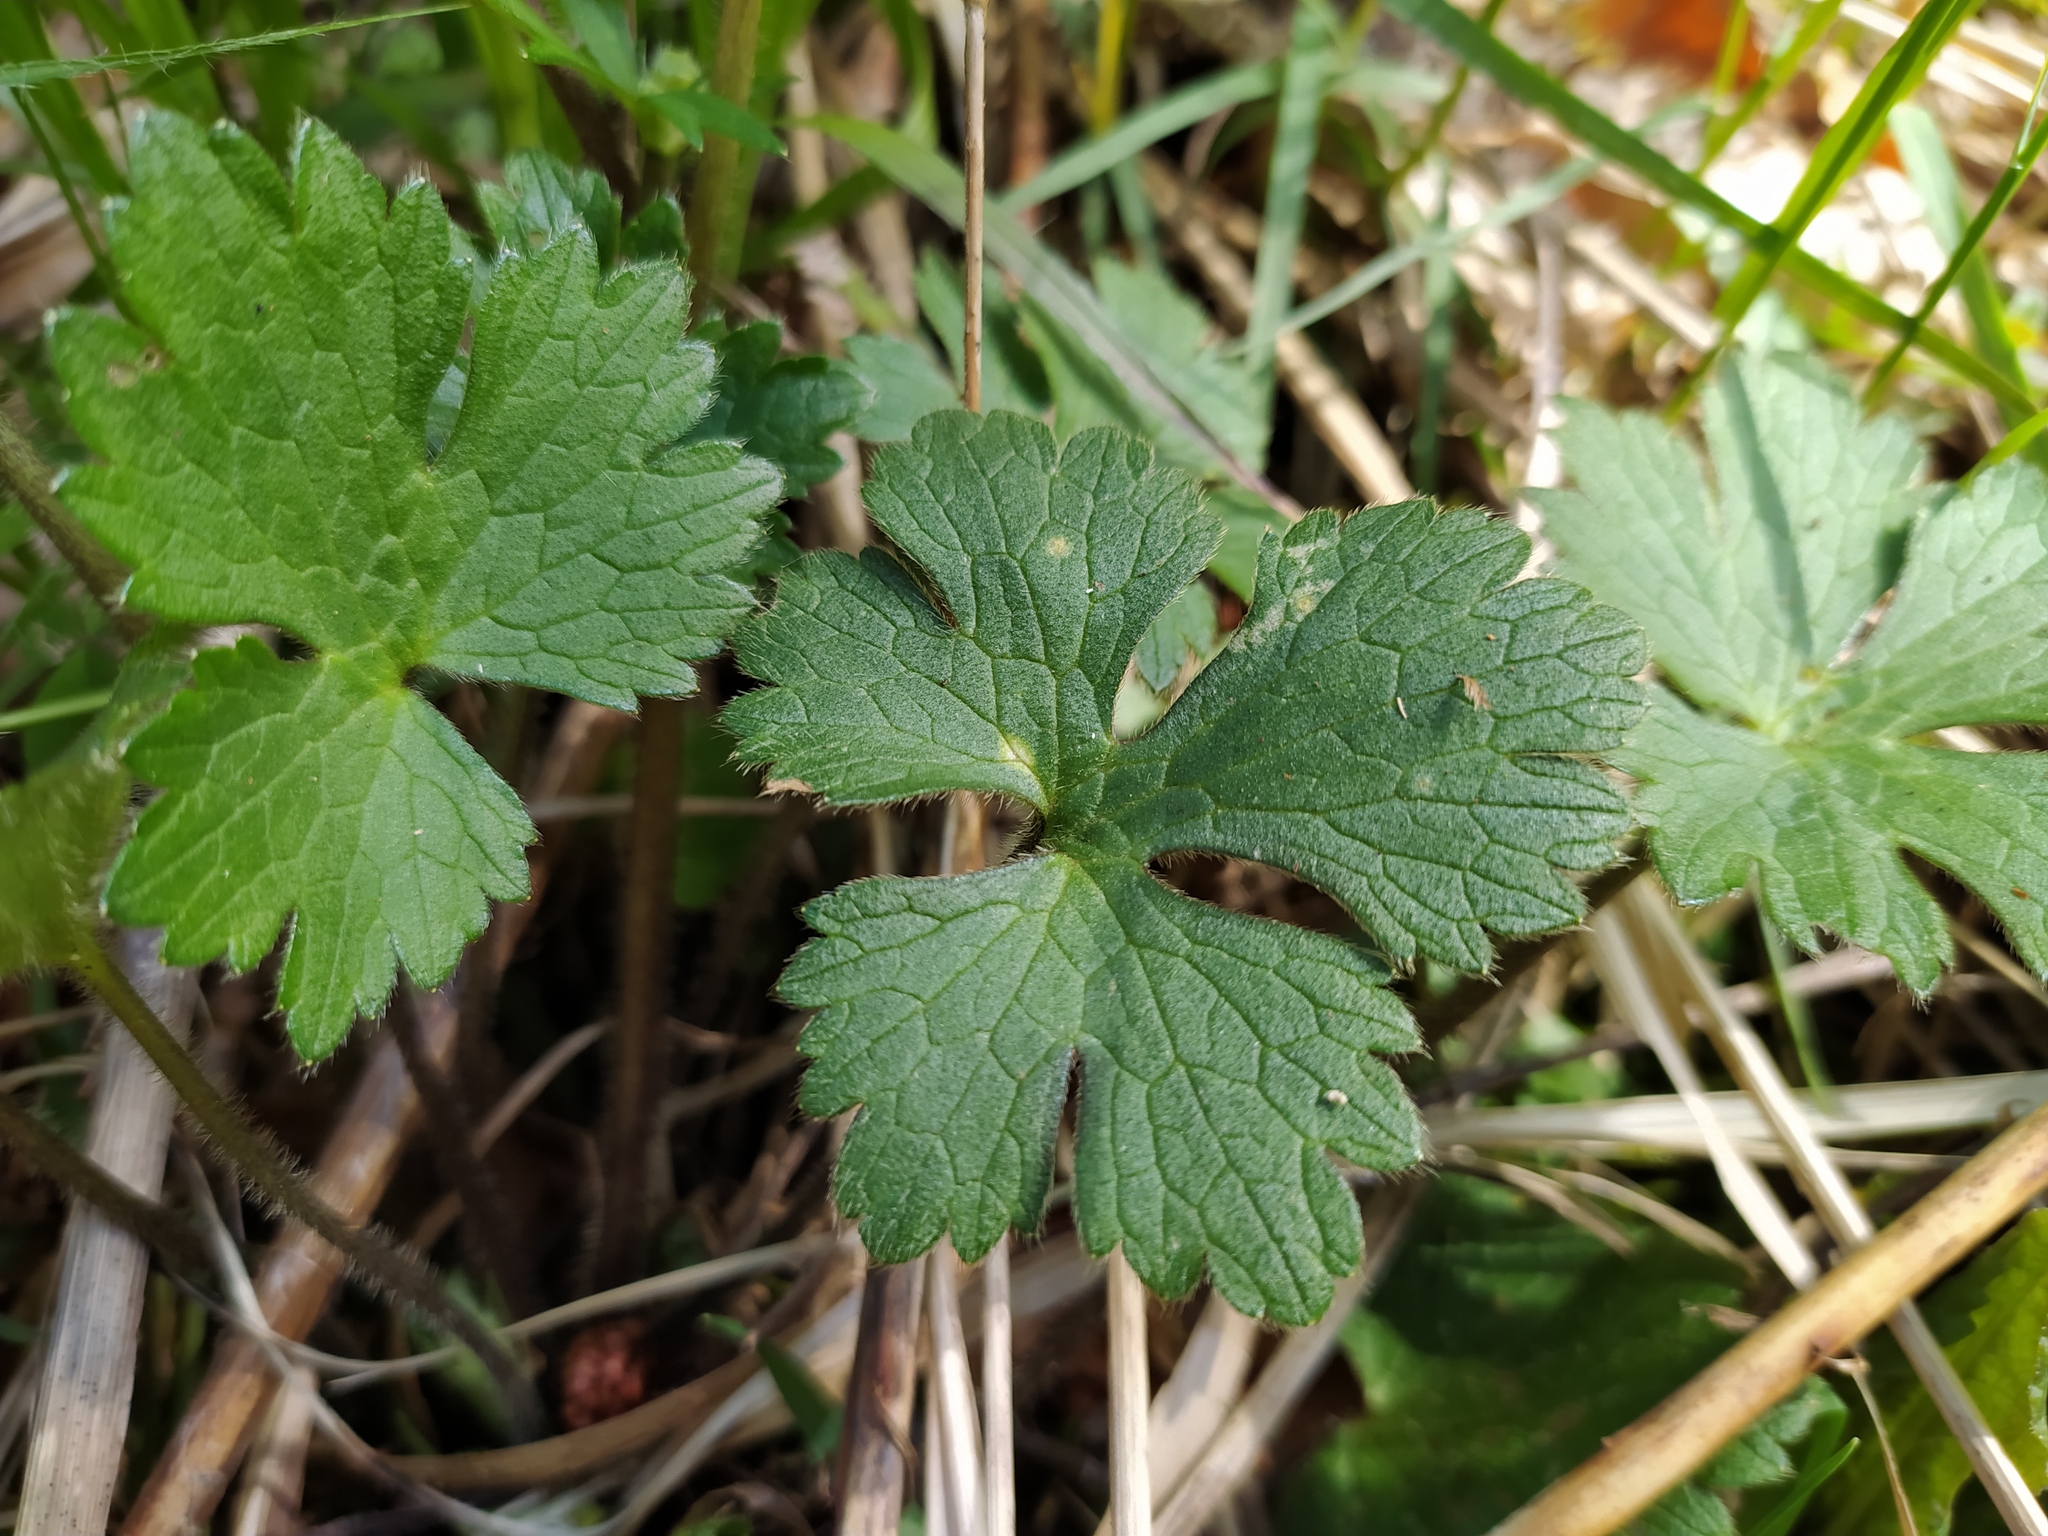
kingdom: Plantae
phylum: Tracheophyta
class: Magnoliopsida
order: Ranunculales
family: Ranunculaceae
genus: Ranunculus
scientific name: Ranunculus lanuginosus
